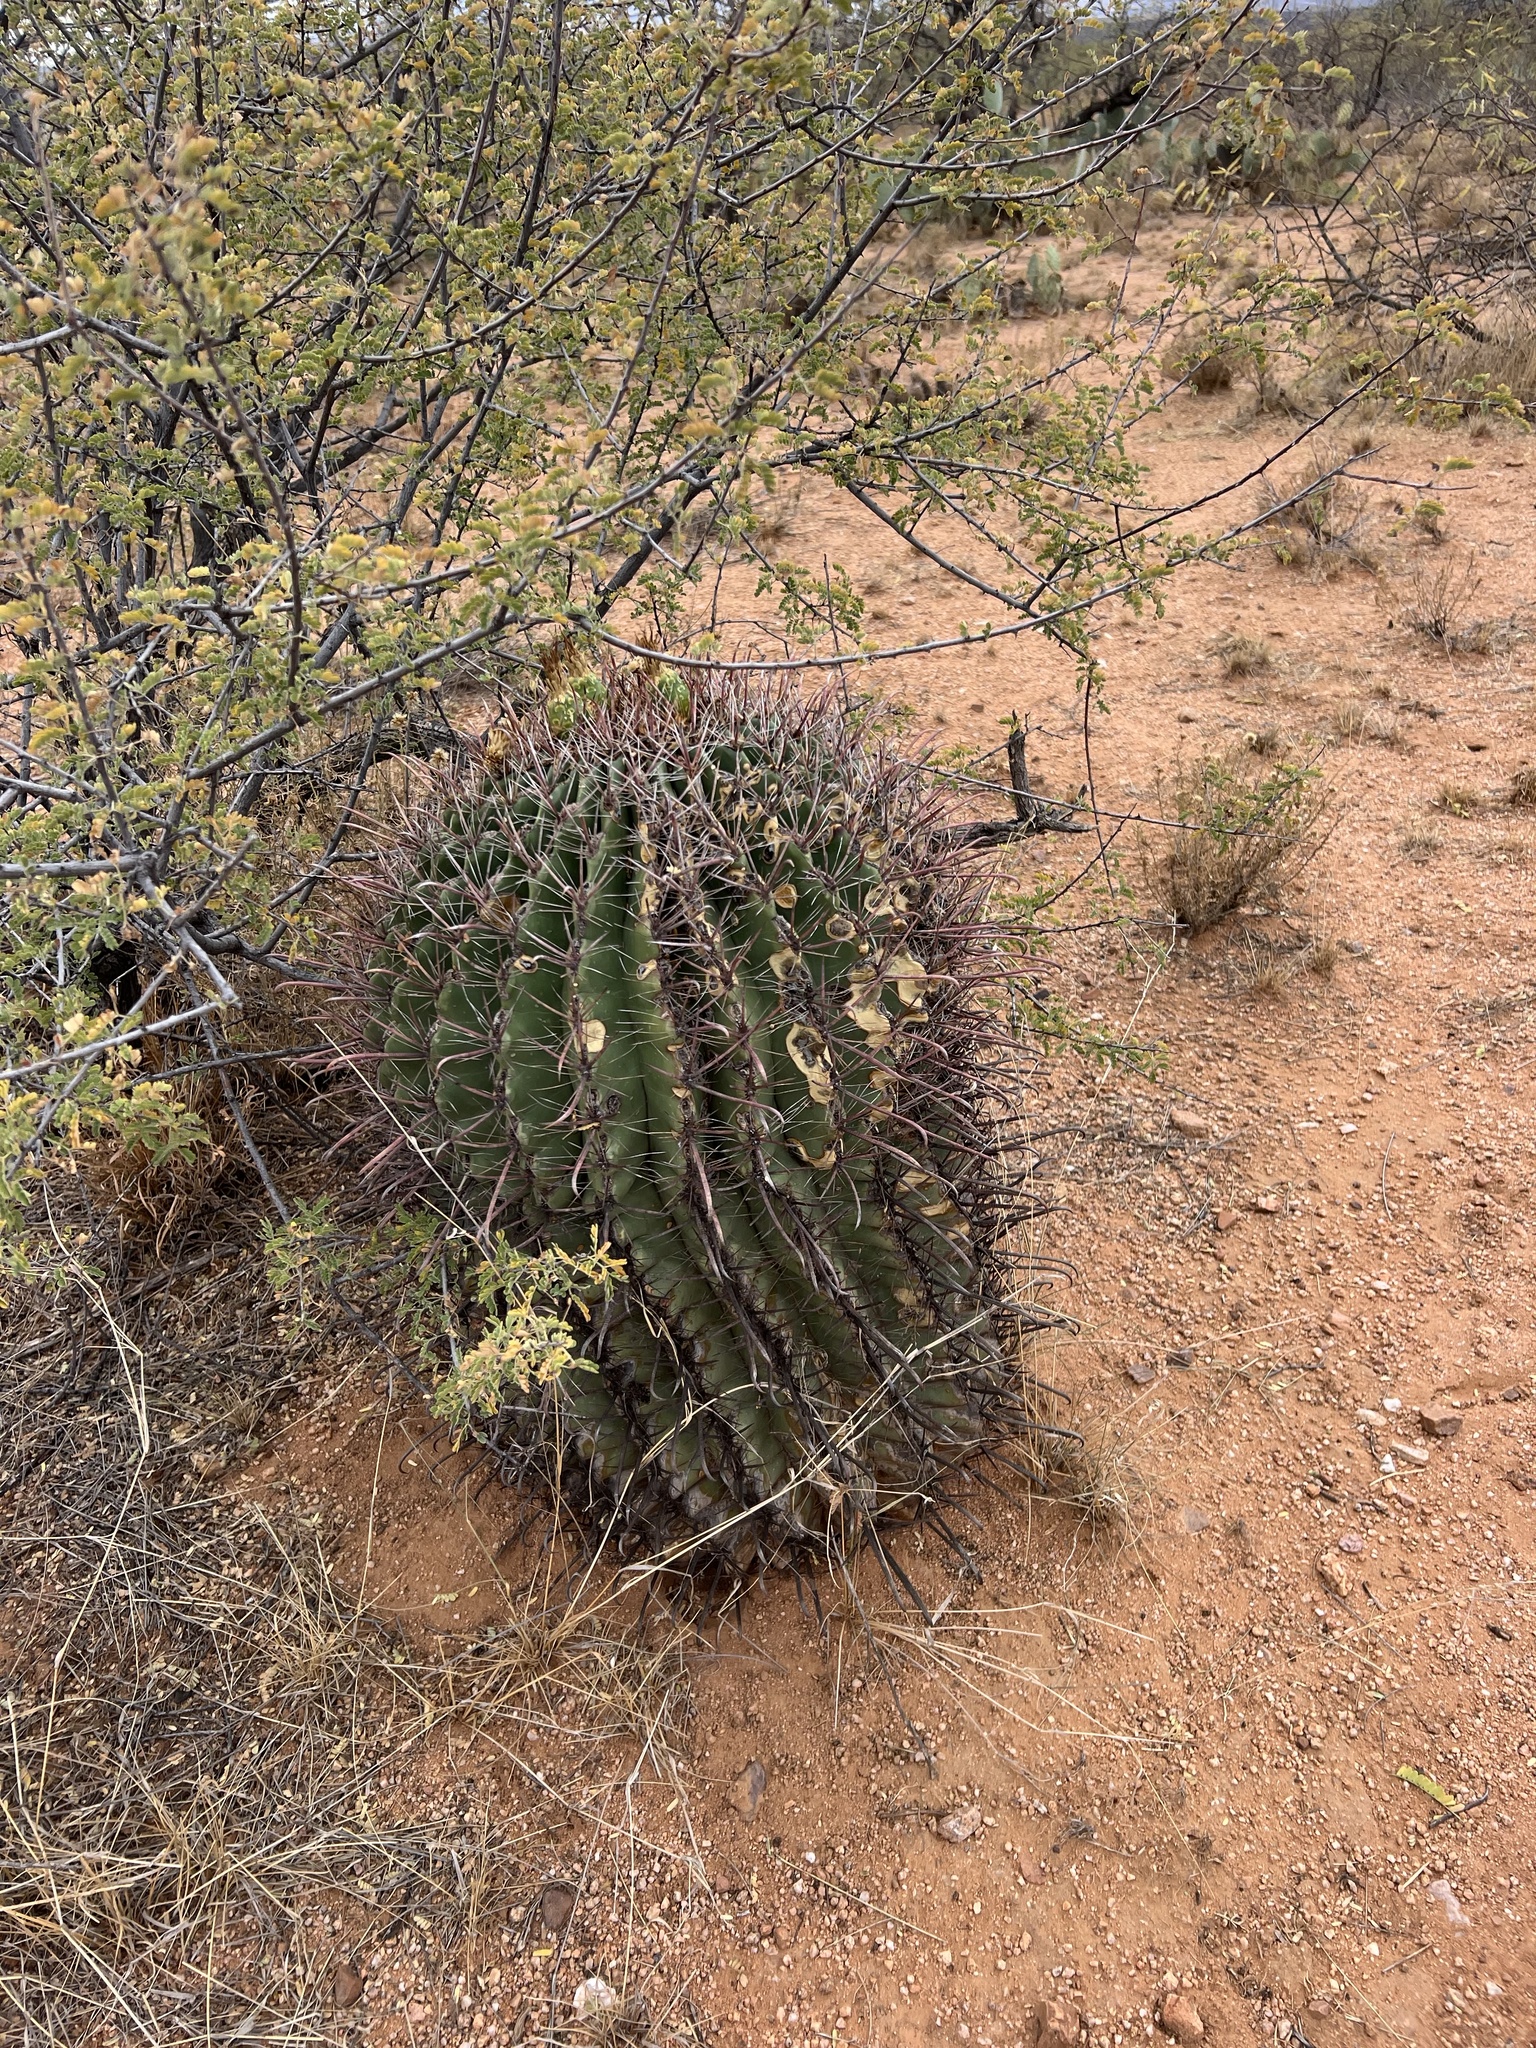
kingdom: Plantae
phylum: Tracheophyta
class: Magnoliopsida
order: Caryophyllales
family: Cactaceae
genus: Ferocactus
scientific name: Ferocactus wislizeni
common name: Candy barrel cactus
